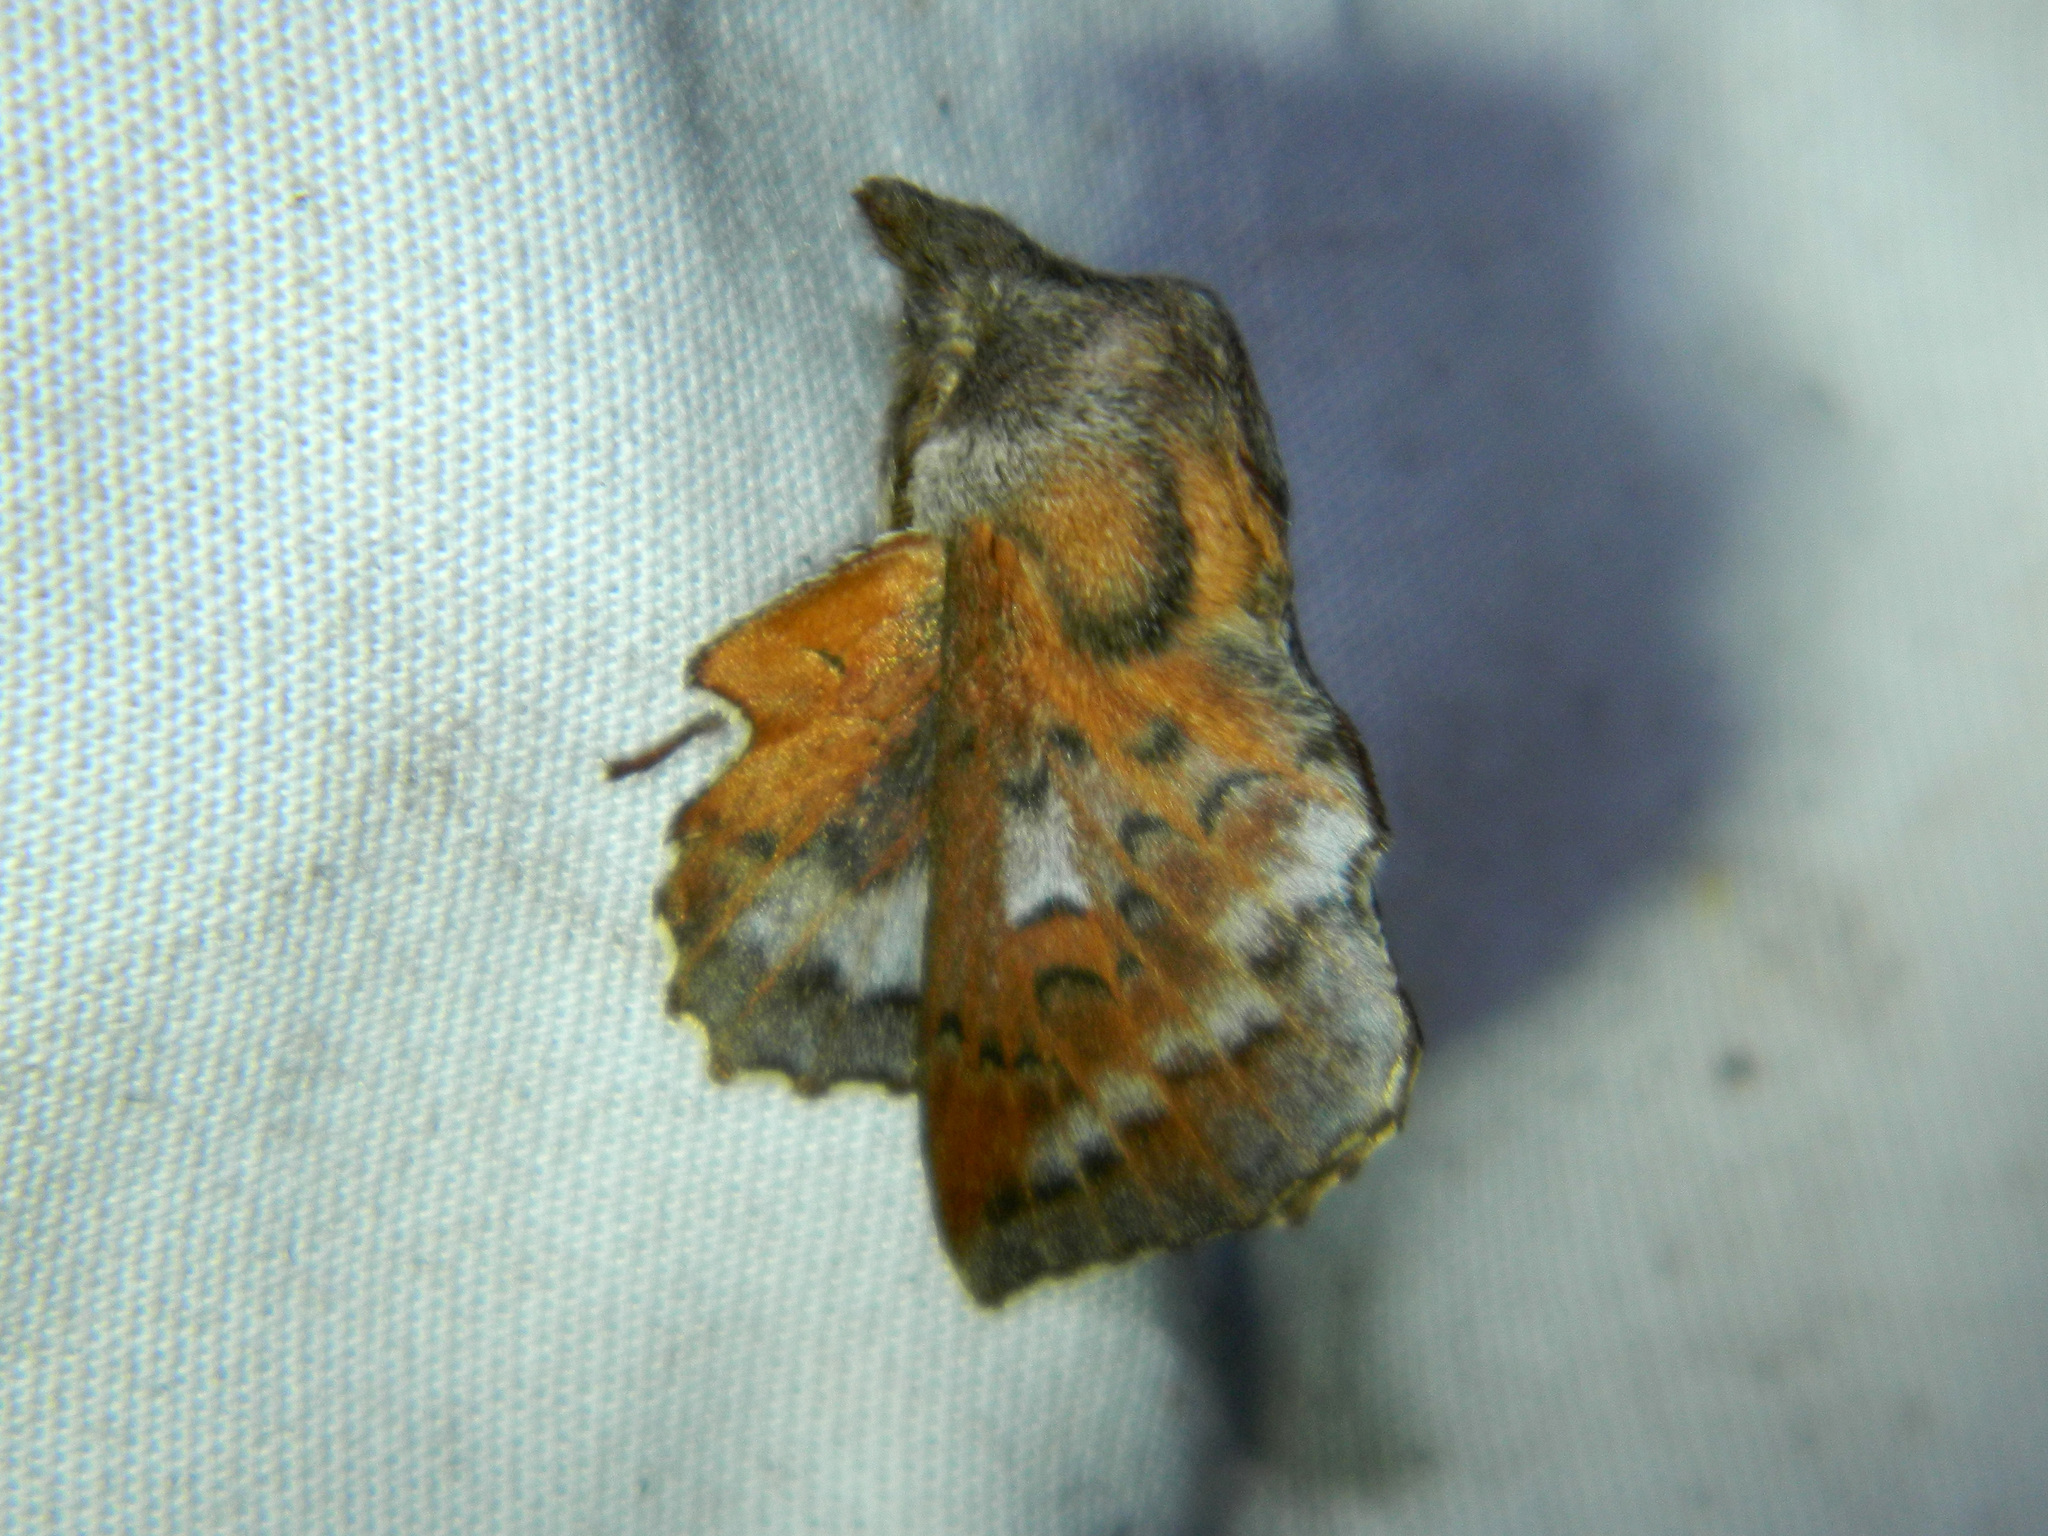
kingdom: Animalia
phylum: Arthropoda
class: Insecta
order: Lepidoptera
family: Lasiocampidae
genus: Phyllodesma
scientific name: Phyllodesma americana
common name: American lappet moth
